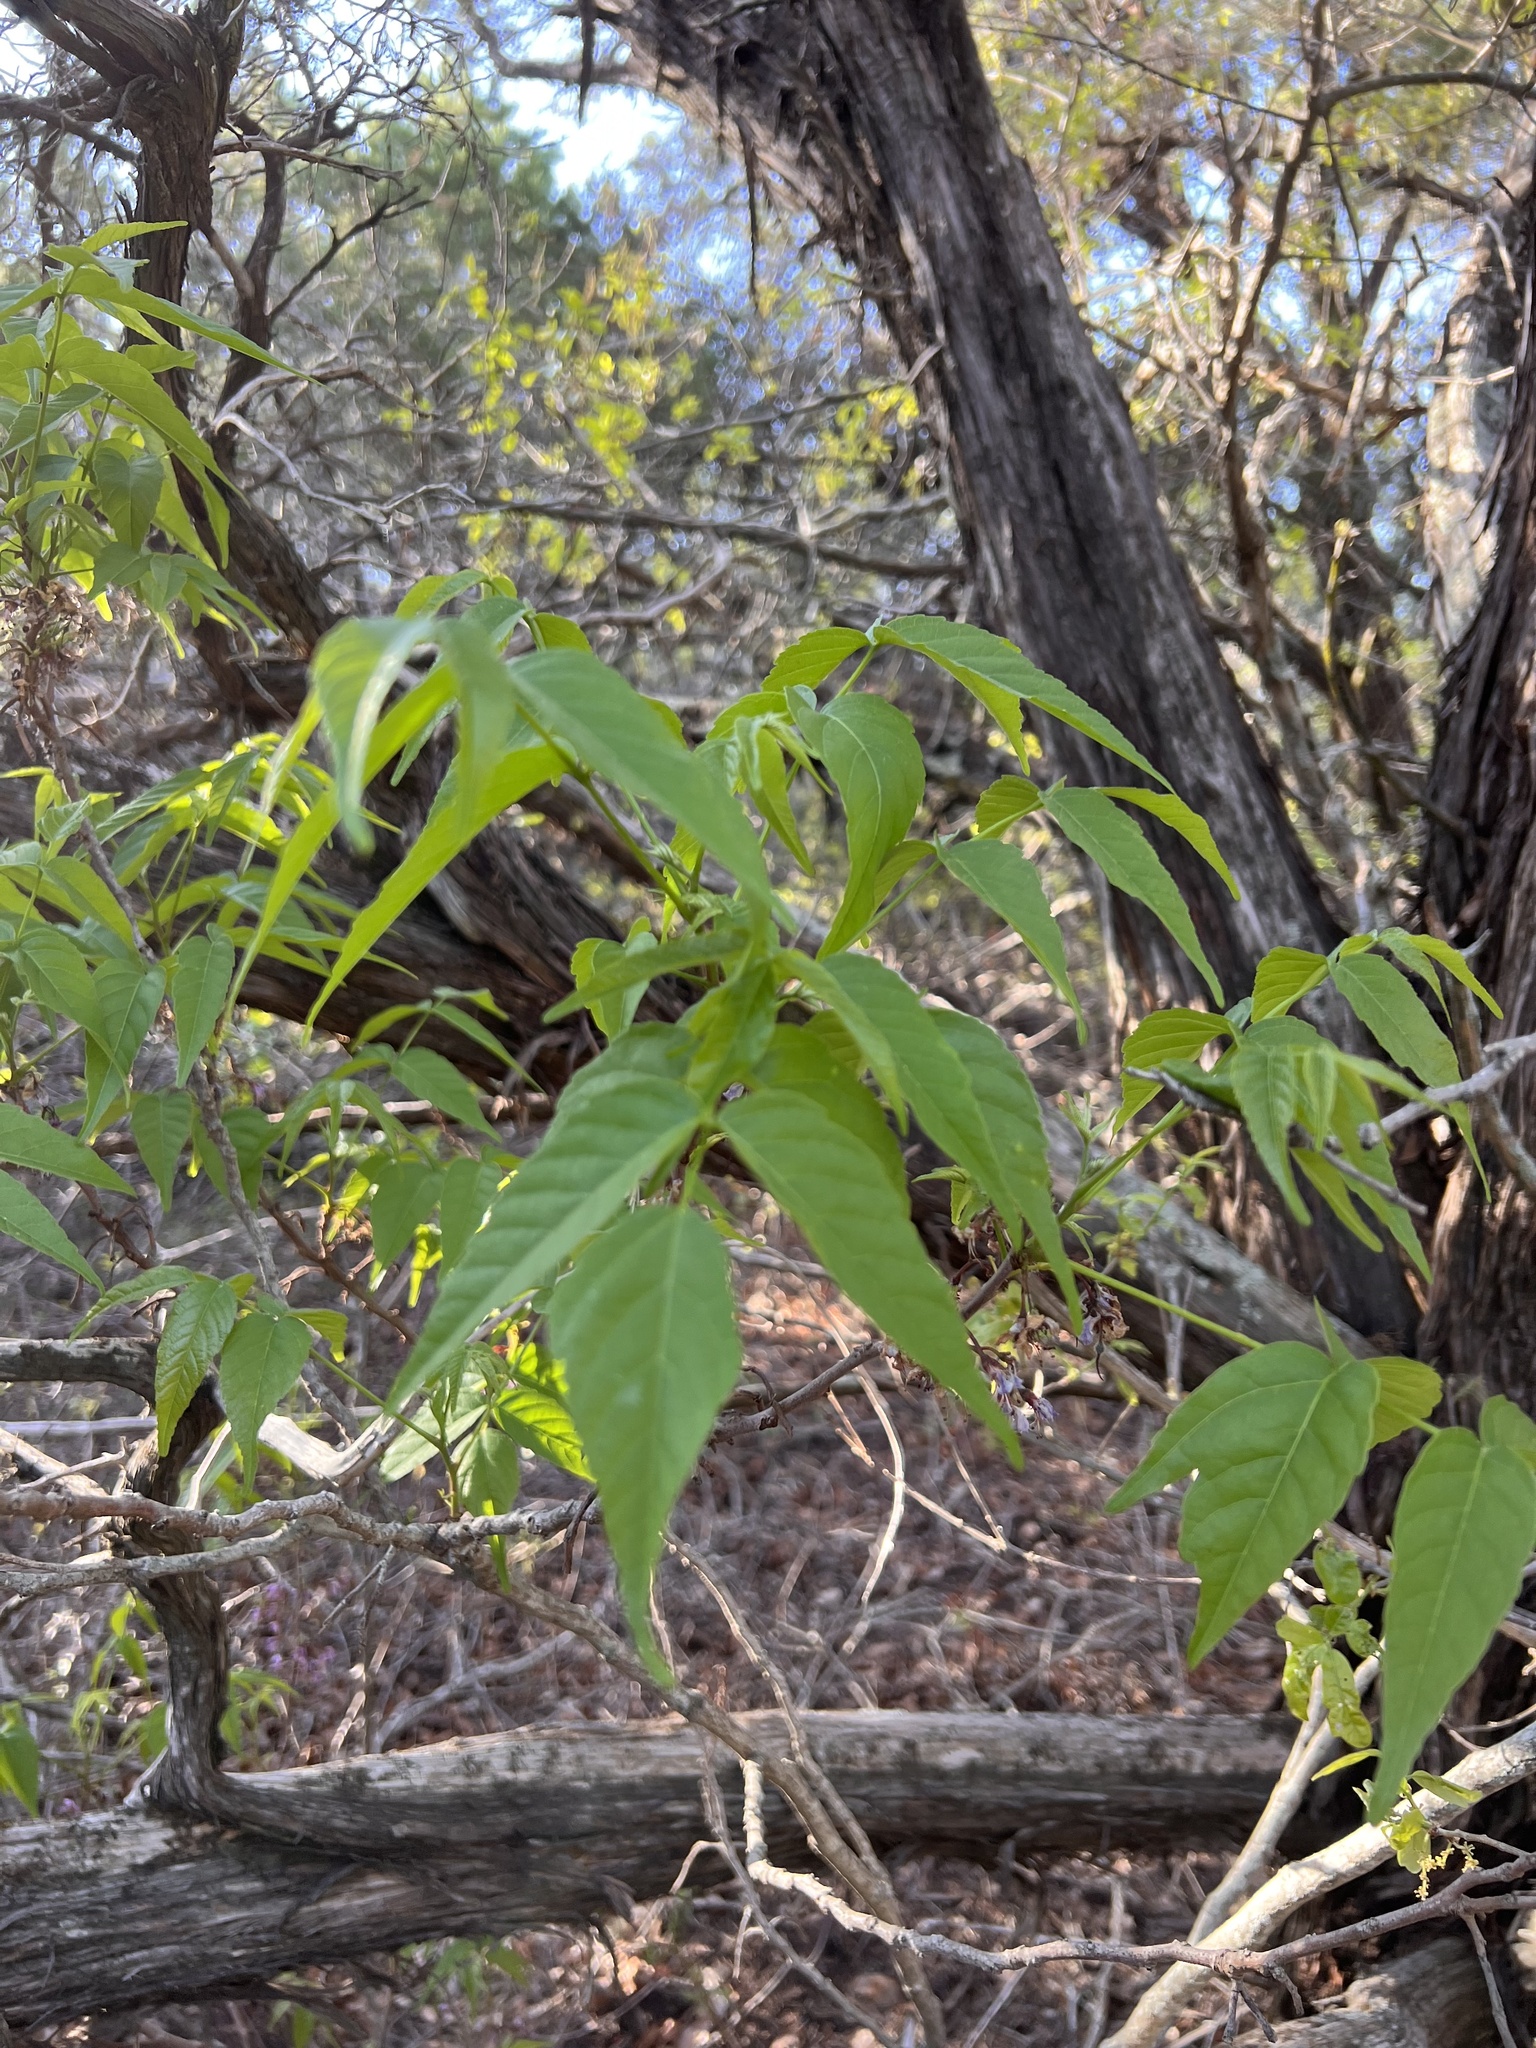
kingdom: Plantae
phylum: Tracheophyta
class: Magnoliopsida
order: Sapindales
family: Sapindaceae
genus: Ungnadia
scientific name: Ungnadia speciosa
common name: Texas-buckeye
